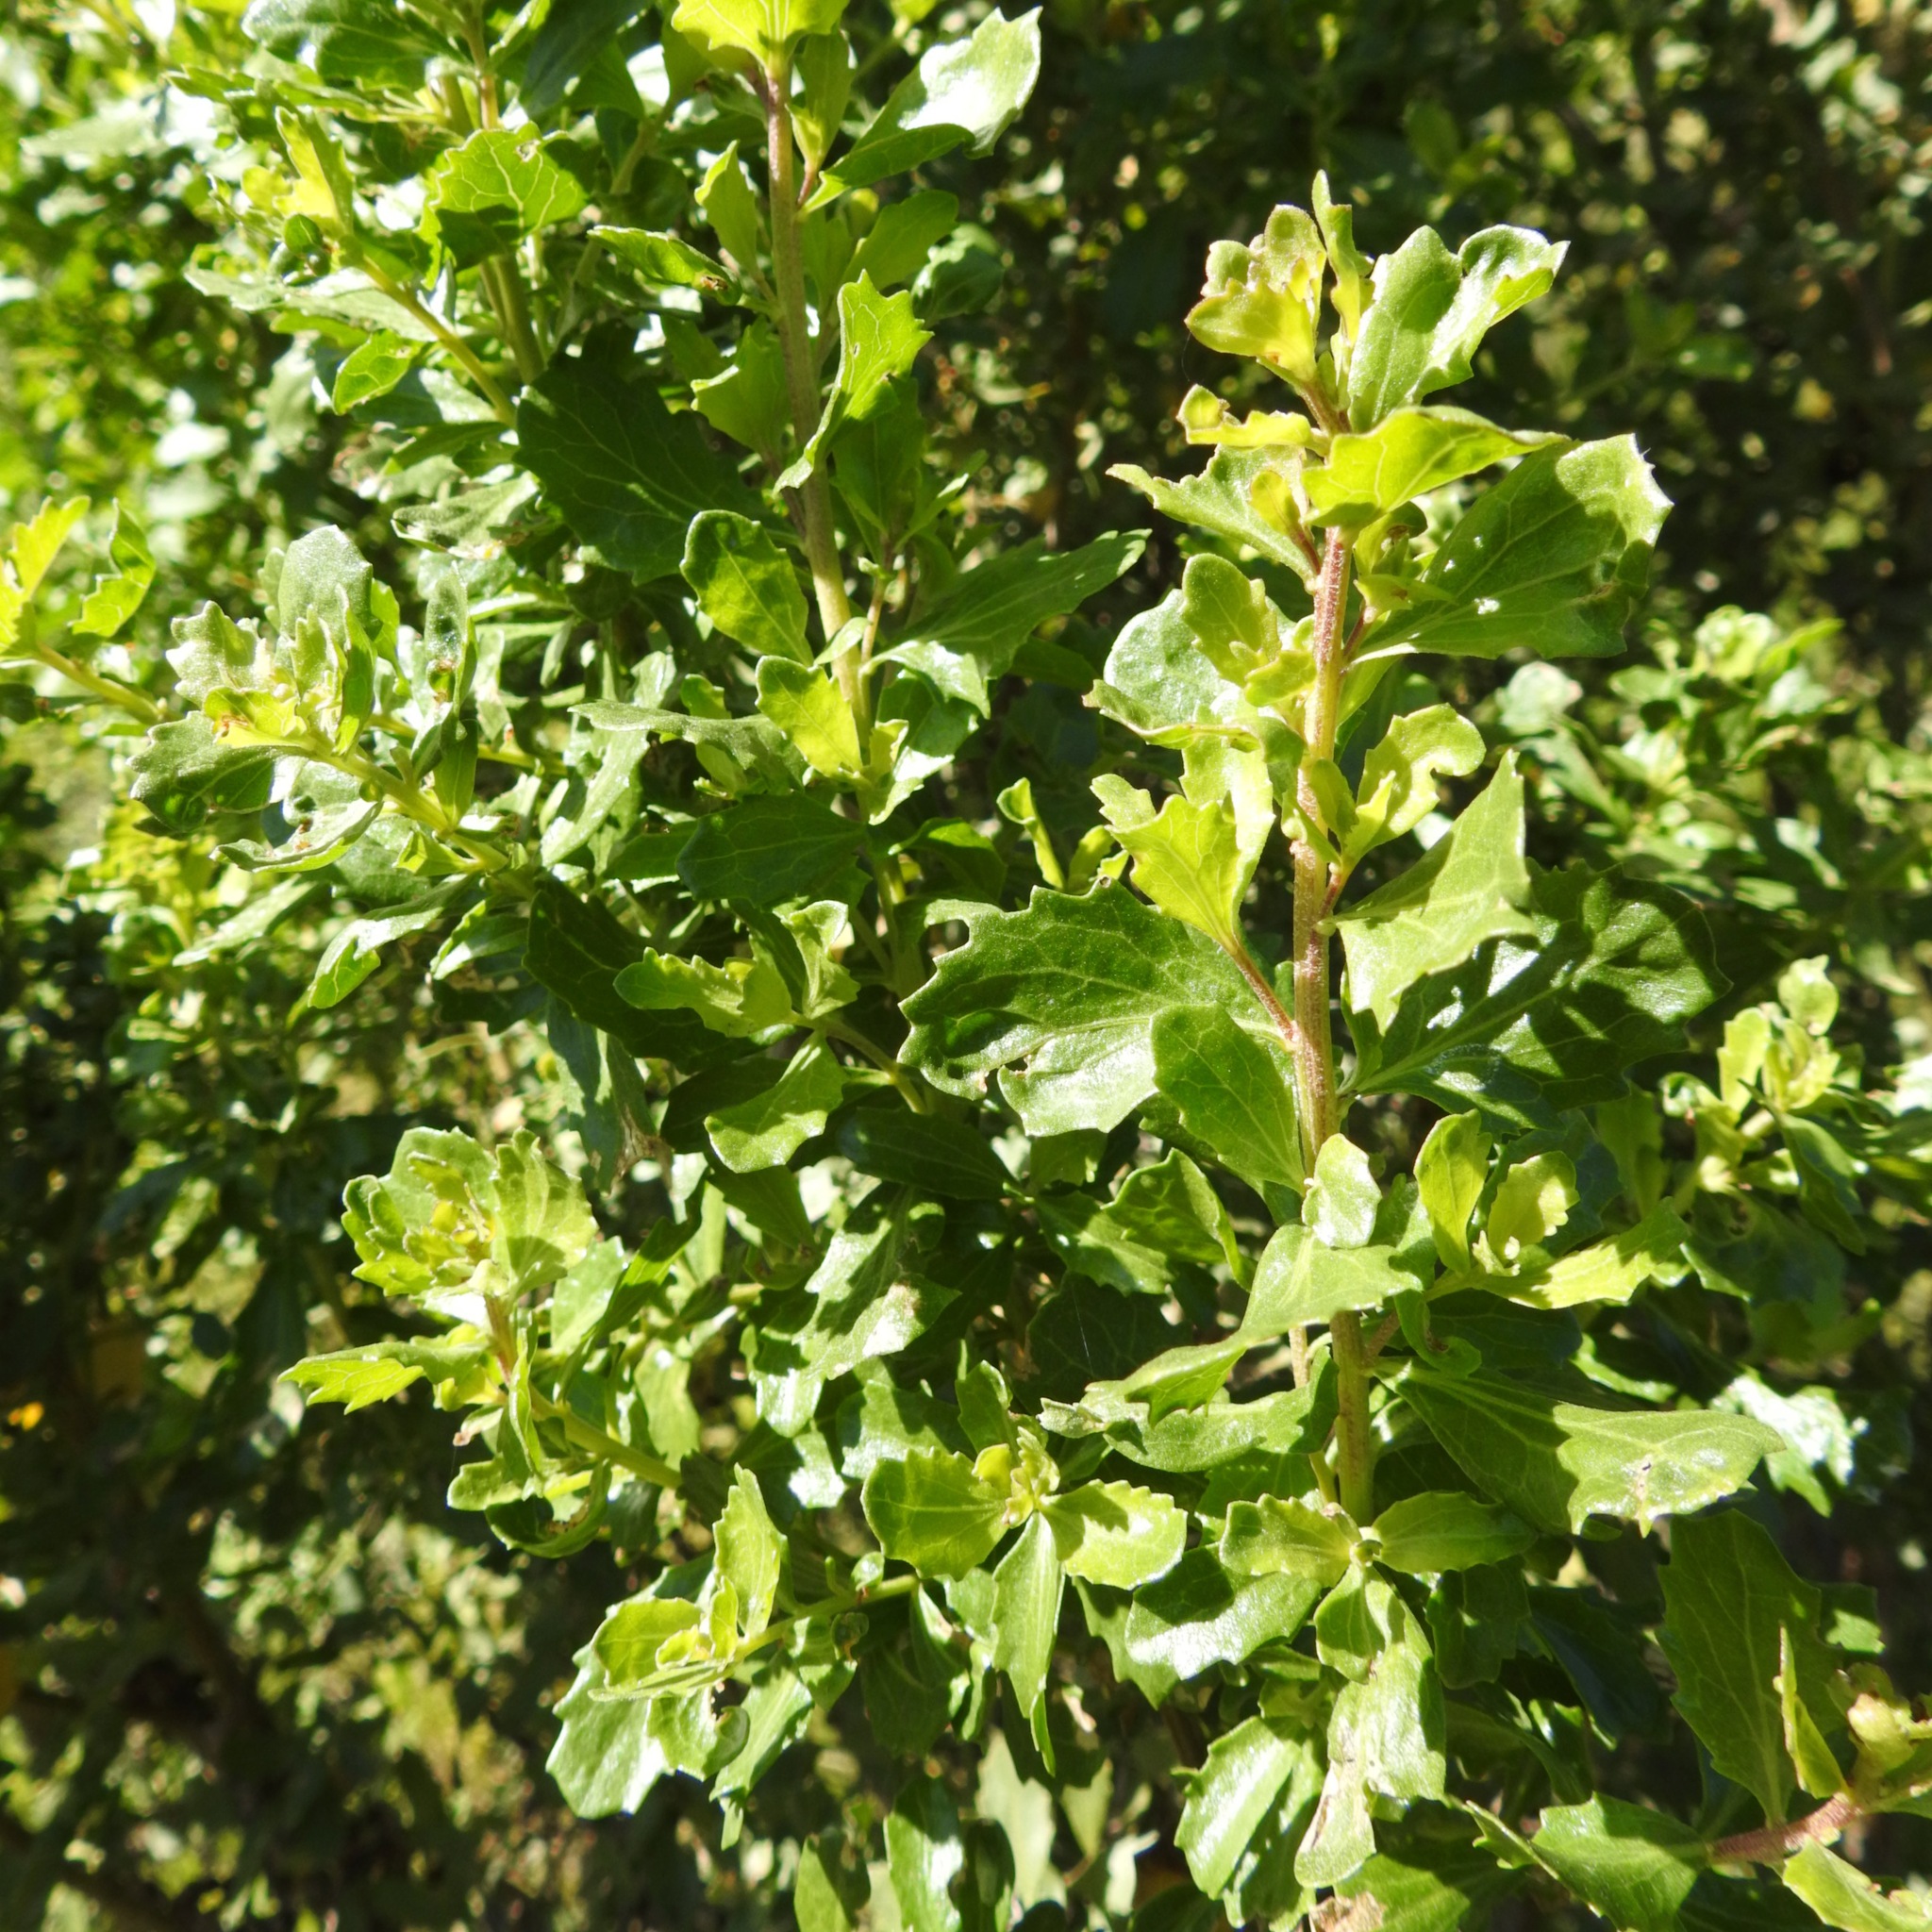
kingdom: Plantae
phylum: Tracheophyta
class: Magnoliopsida
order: Asterales
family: Asteraceae
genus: Baccharis
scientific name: Baccharis pilularis
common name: Coyotebrush
